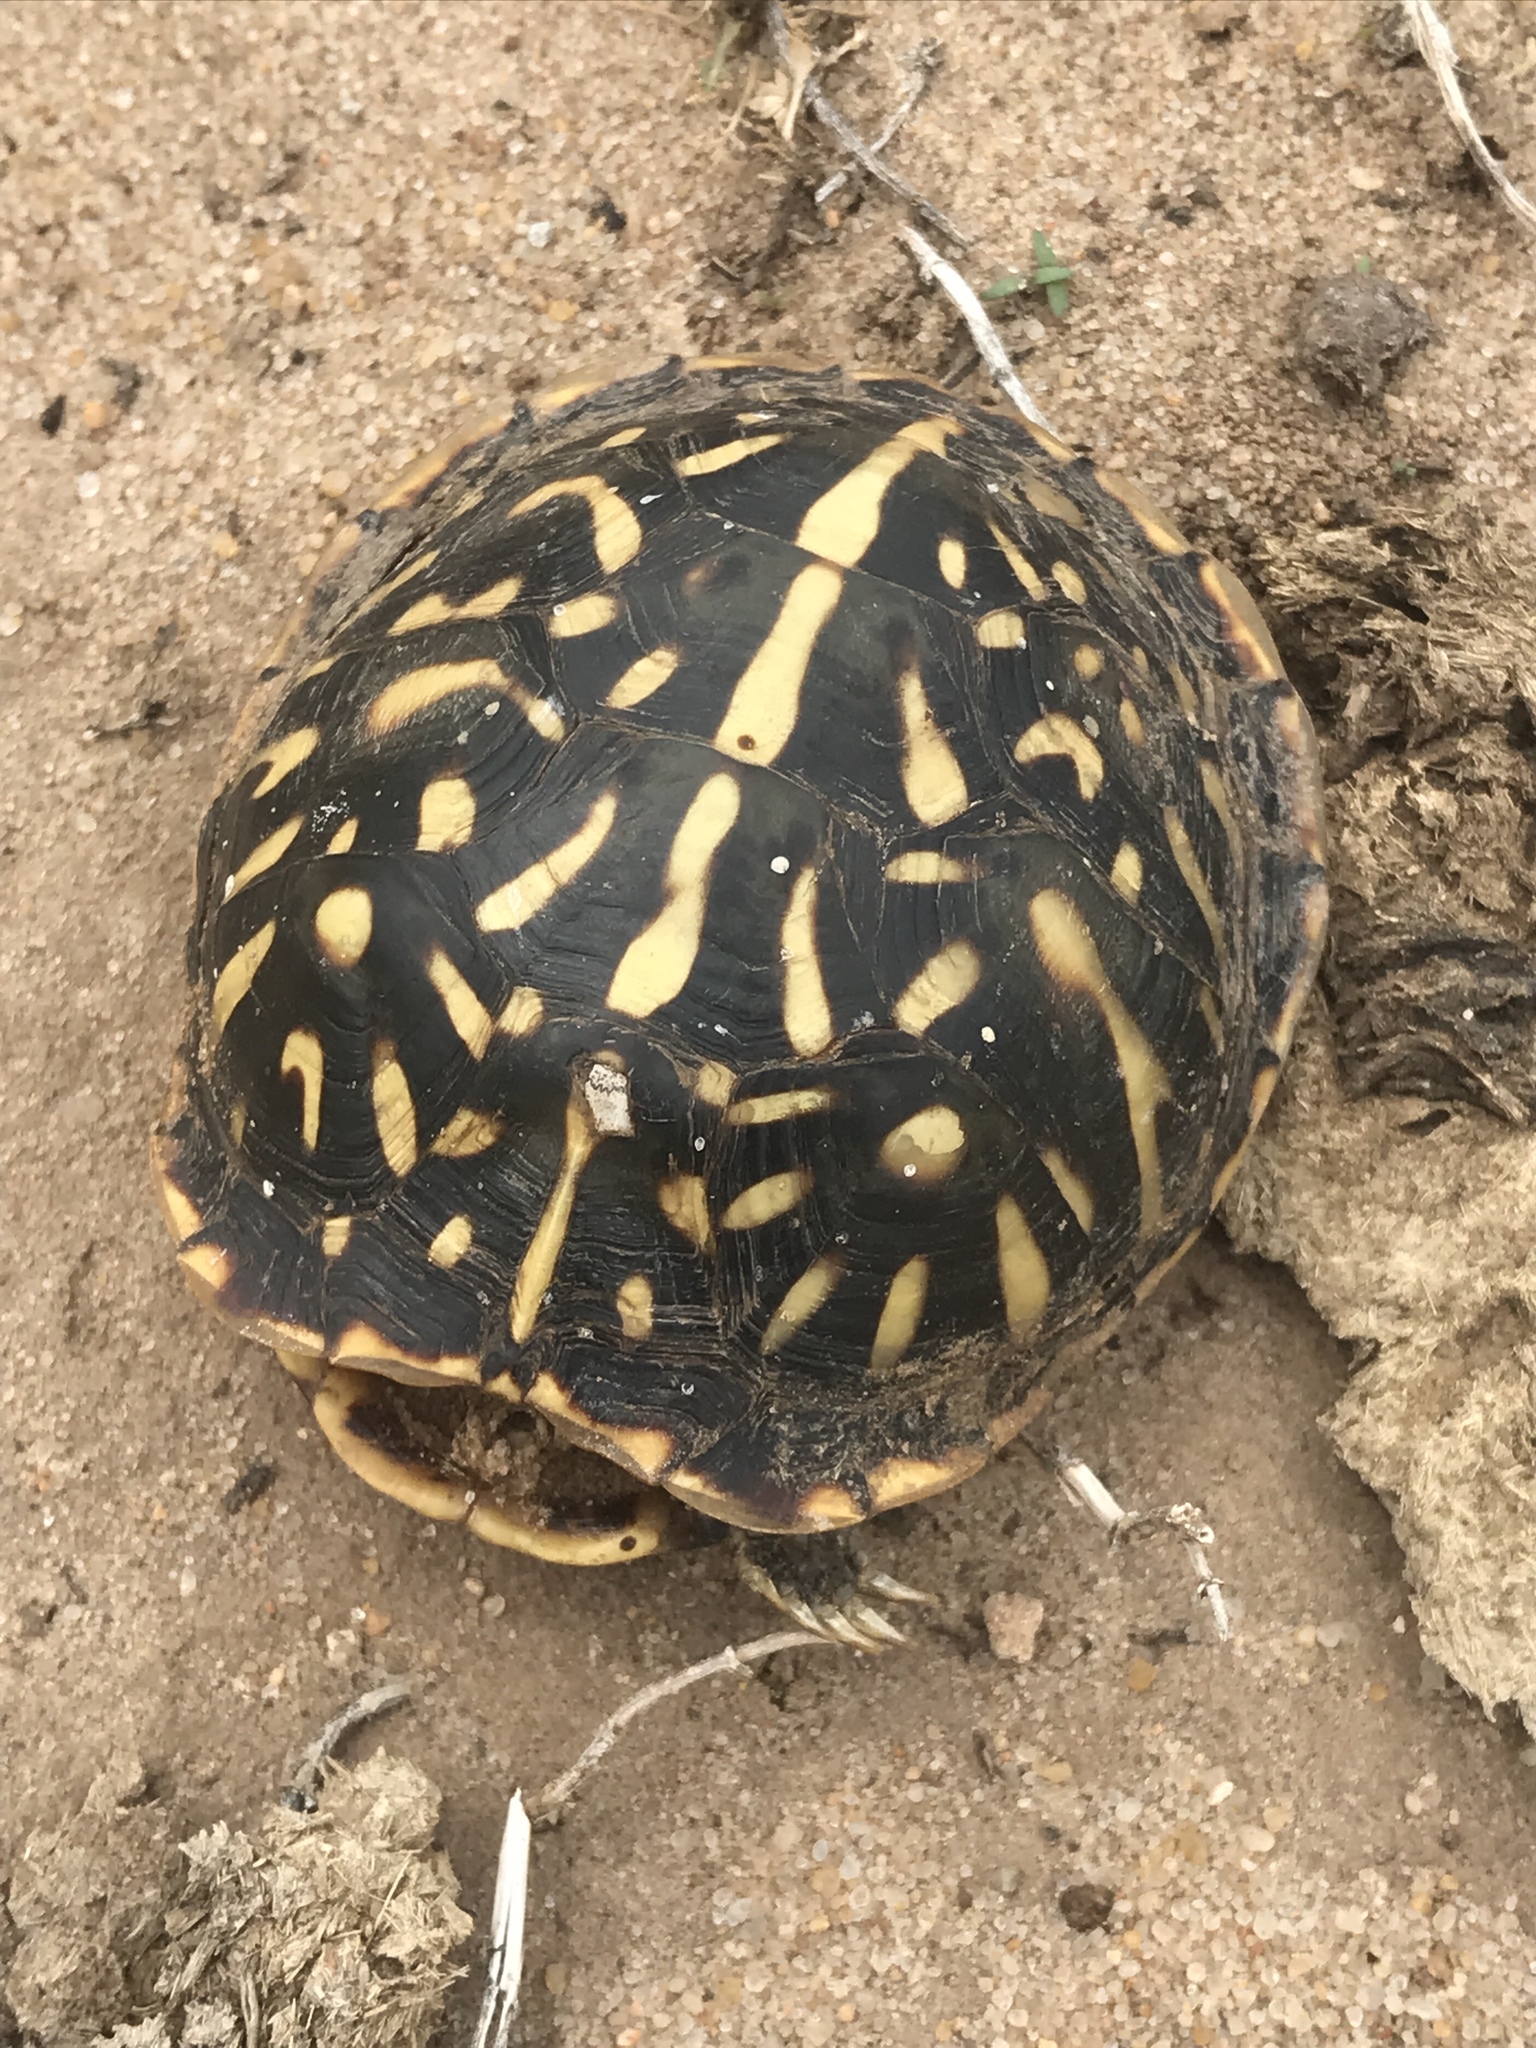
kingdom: Animalia
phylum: Chordata
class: Testudines
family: Emydidae
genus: Terrapene
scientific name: Terrapene ornata
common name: Western box turtle
